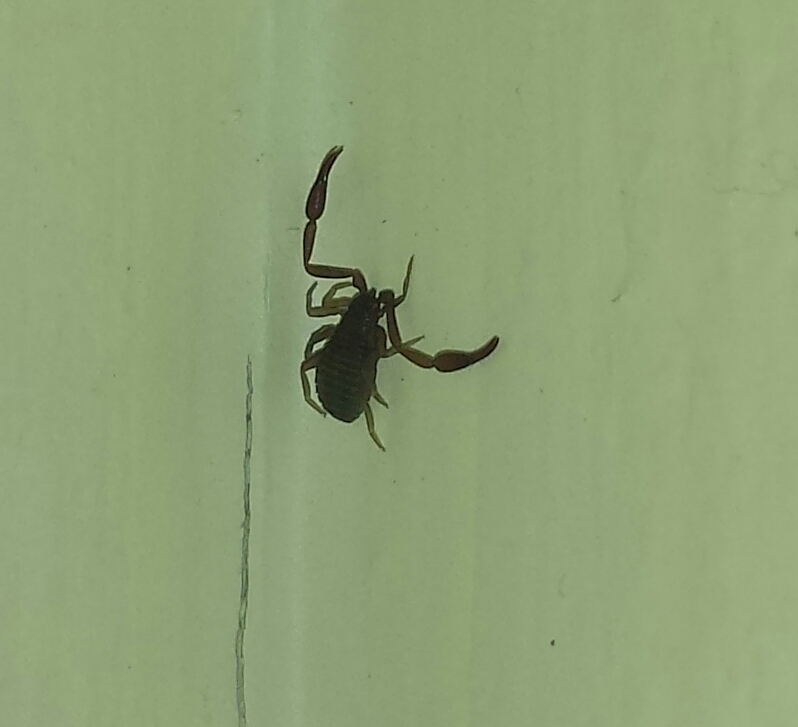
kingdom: Animalia
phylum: Arthropoda
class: Arachnida
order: Pseudoscorpiones
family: Cheliferidae
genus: Chelifer
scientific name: Chelifer cancroides
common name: House false-scorpion
